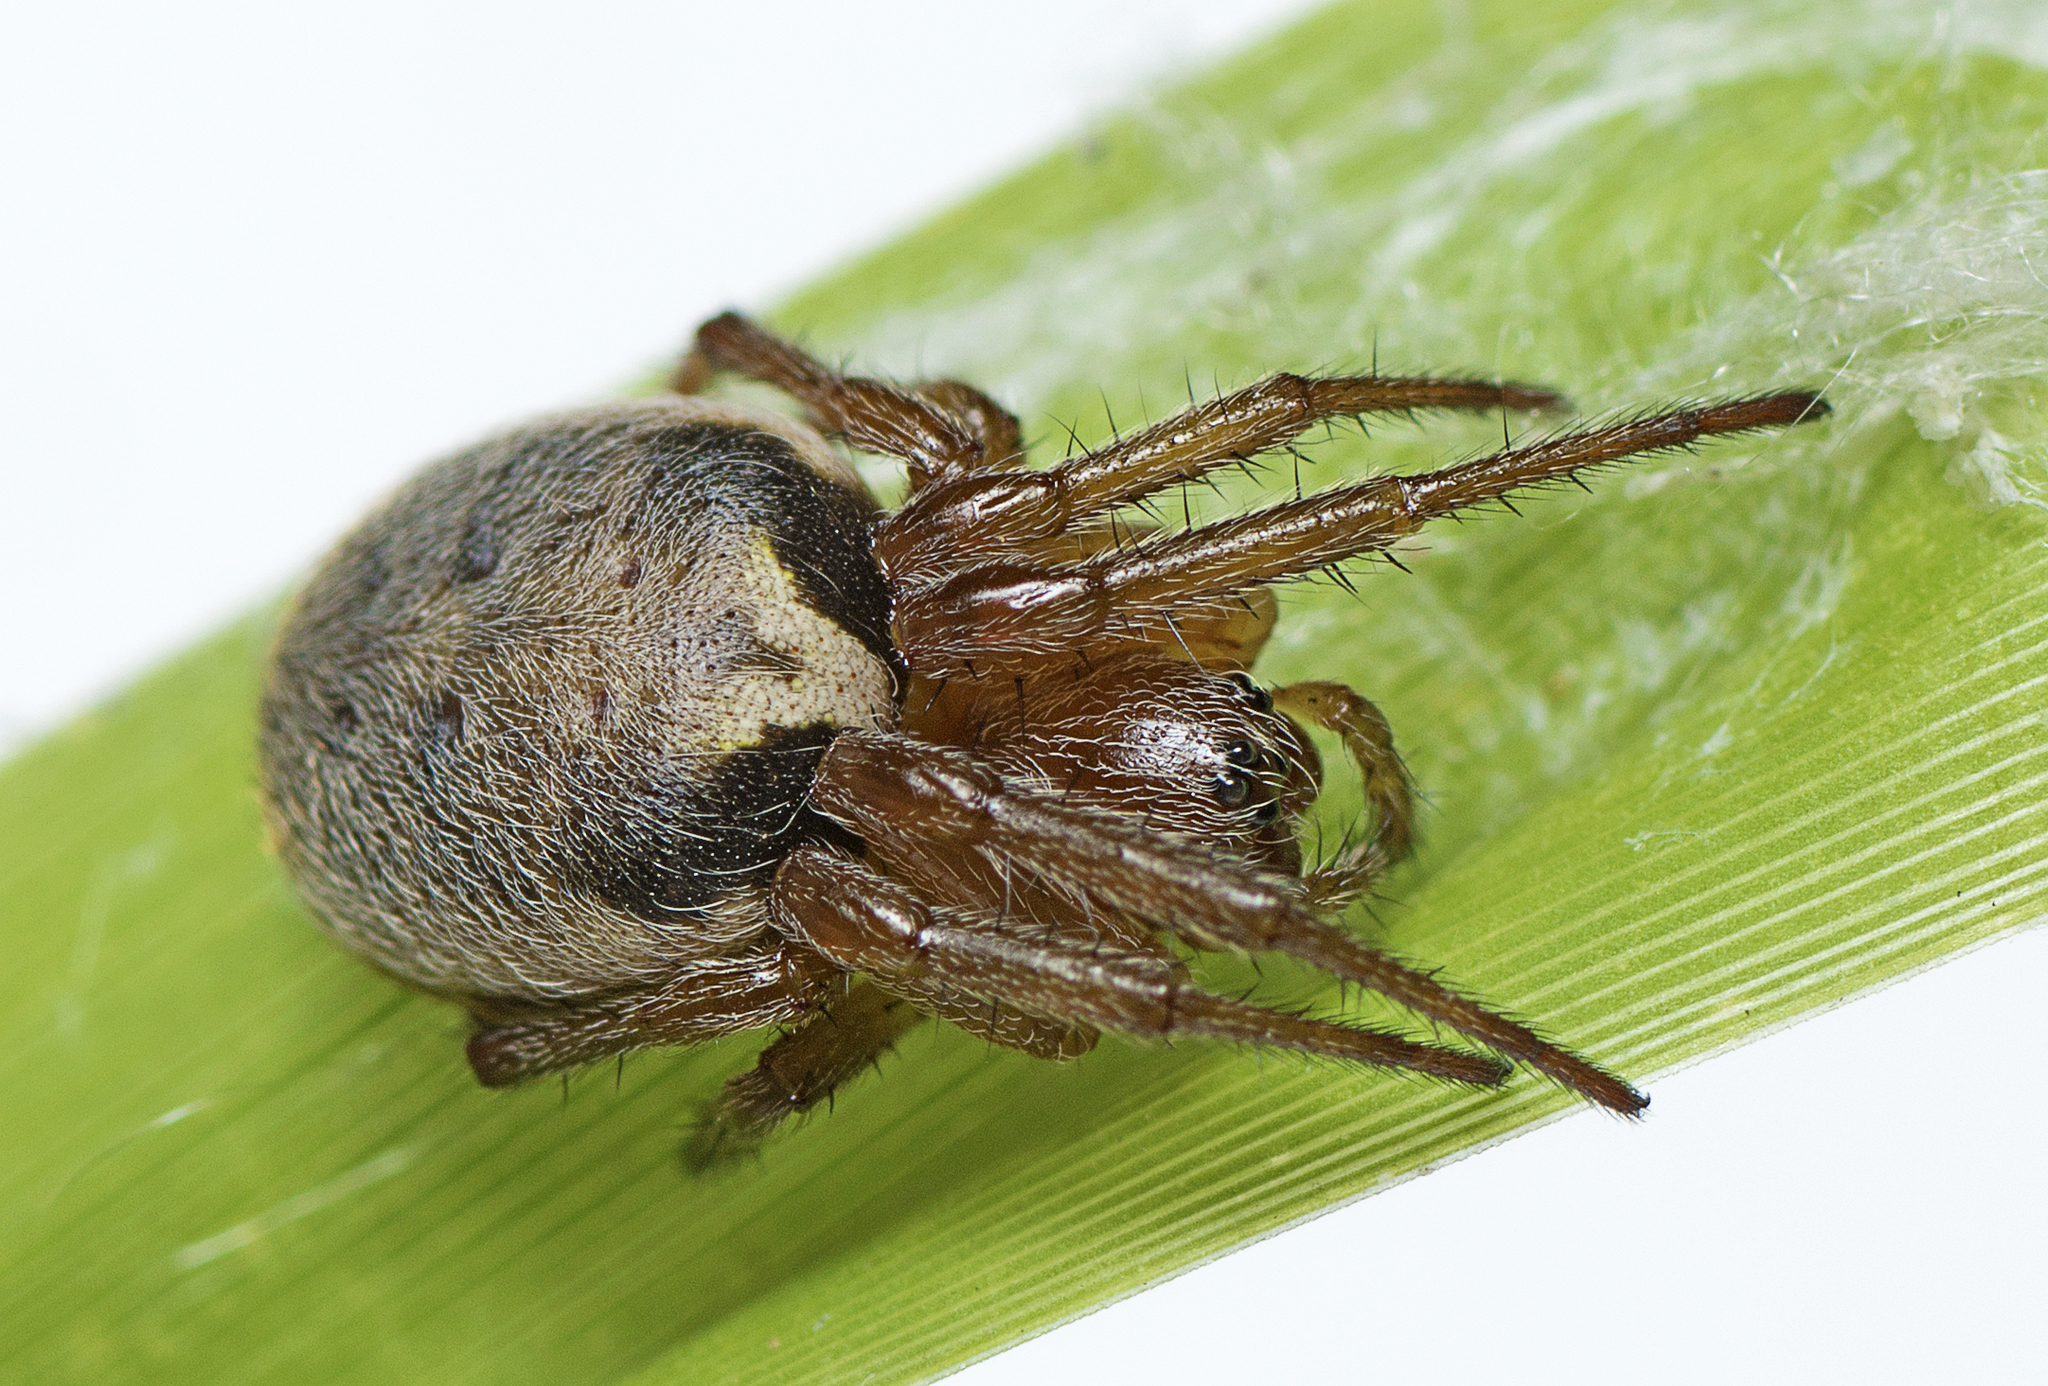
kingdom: Animalia
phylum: Arthropoda
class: Arachnida
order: Araneae
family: Araneidae
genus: Leviana
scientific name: Leviana folium
